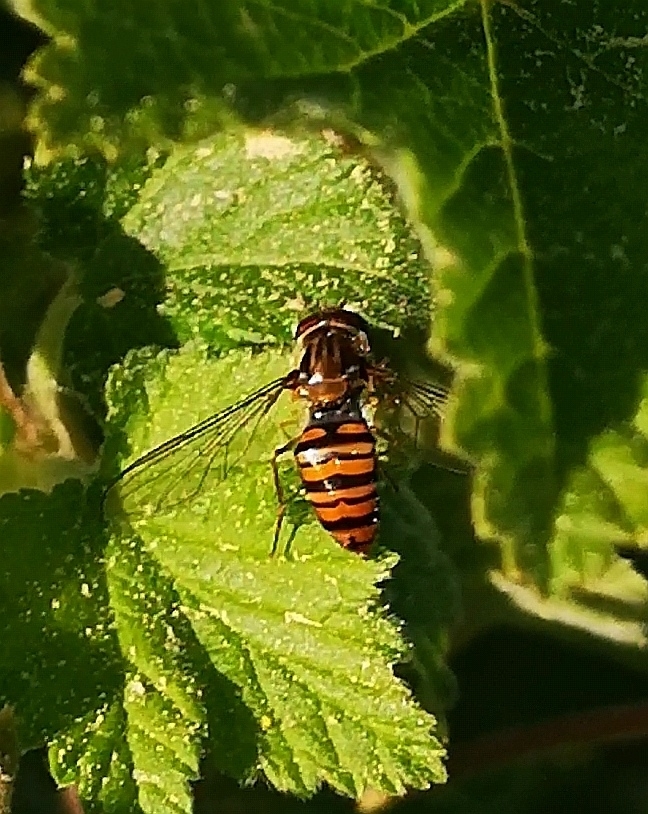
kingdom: Animalia
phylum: Arthropoda
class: Insecta
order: Diptera
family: Syrphidae
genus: Episyrphus
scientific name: Episyrphus balteatus
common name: Marmalade hoverfly
